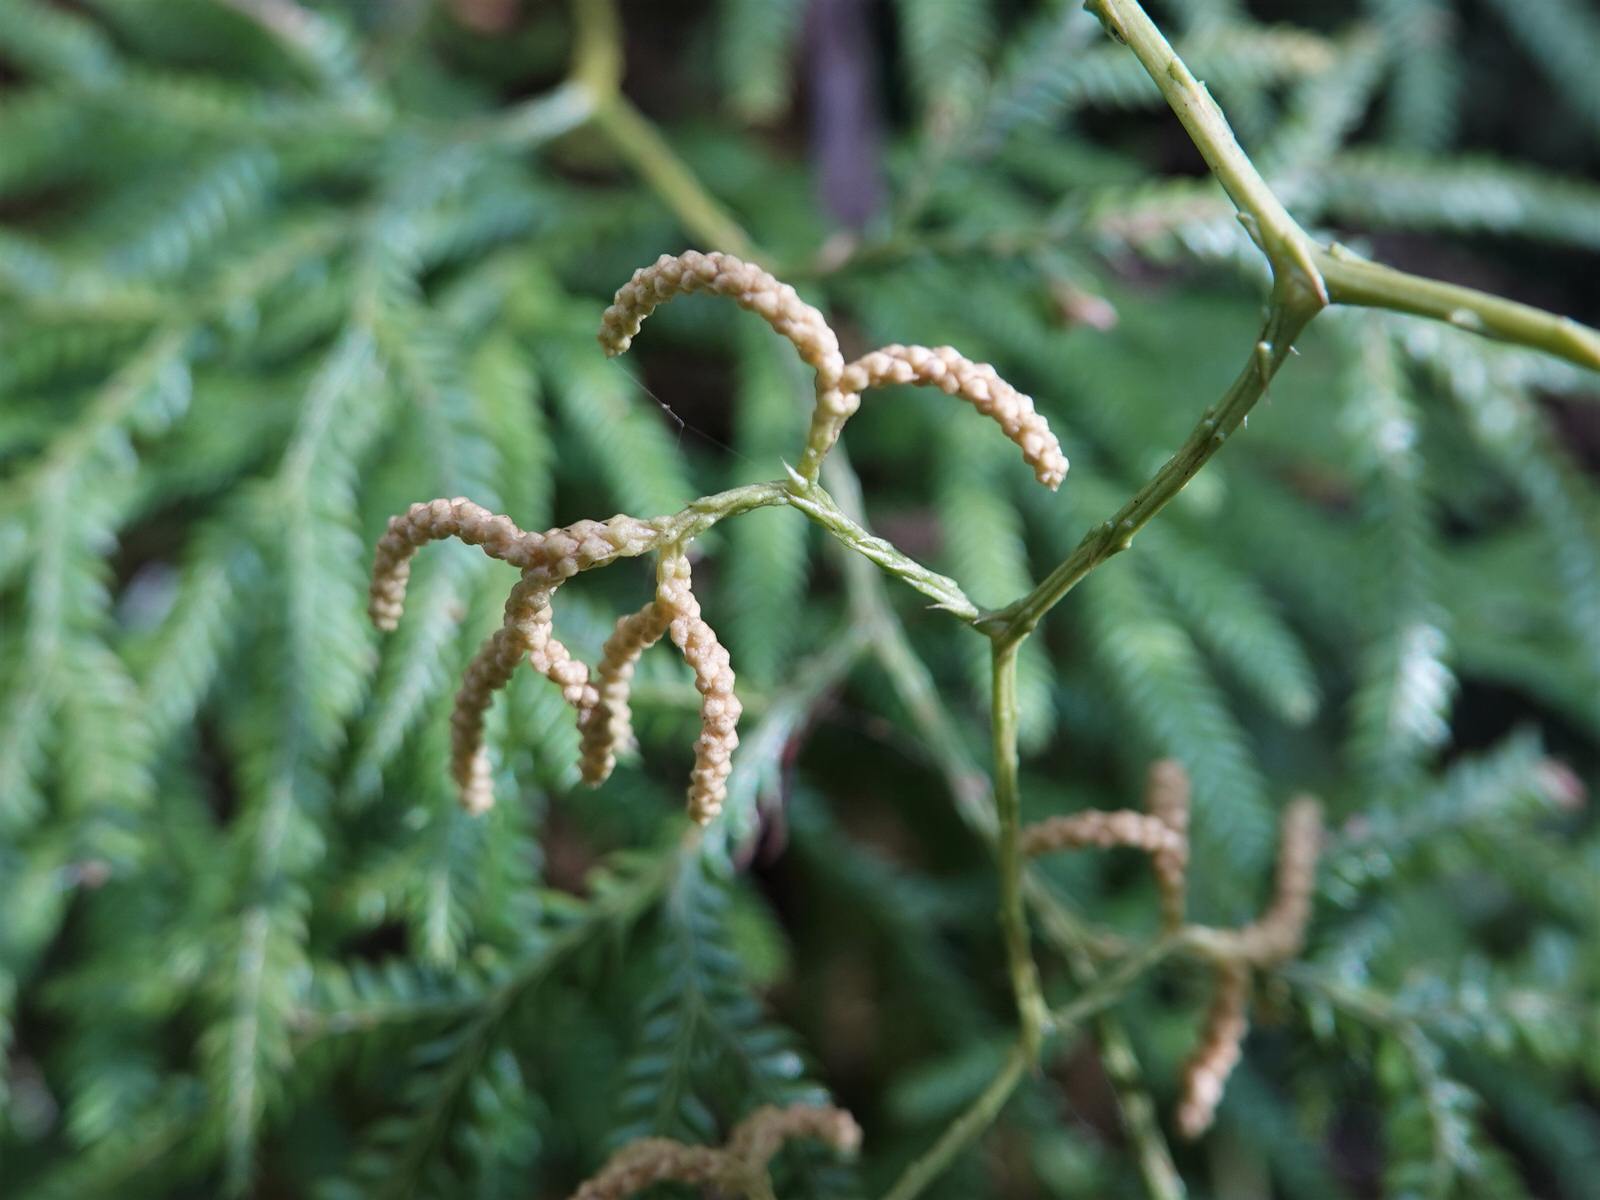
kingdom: Plantae
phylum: Tracheophyta
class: Lycopodiopsida
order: Lycopodiales
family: Lycopodiaceae
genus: Lycopodium
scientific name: Lycopodium volubile
